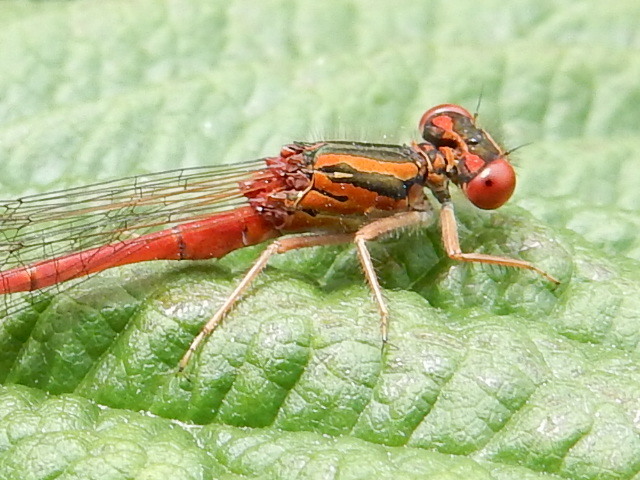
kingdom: Animalia
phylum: Arthropoda
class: Insecta
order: Odonata
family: Coenagrionidae
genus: Xanthocnemis
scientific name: Xanthocnemis zealandica
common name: Common redcoat damselfly
